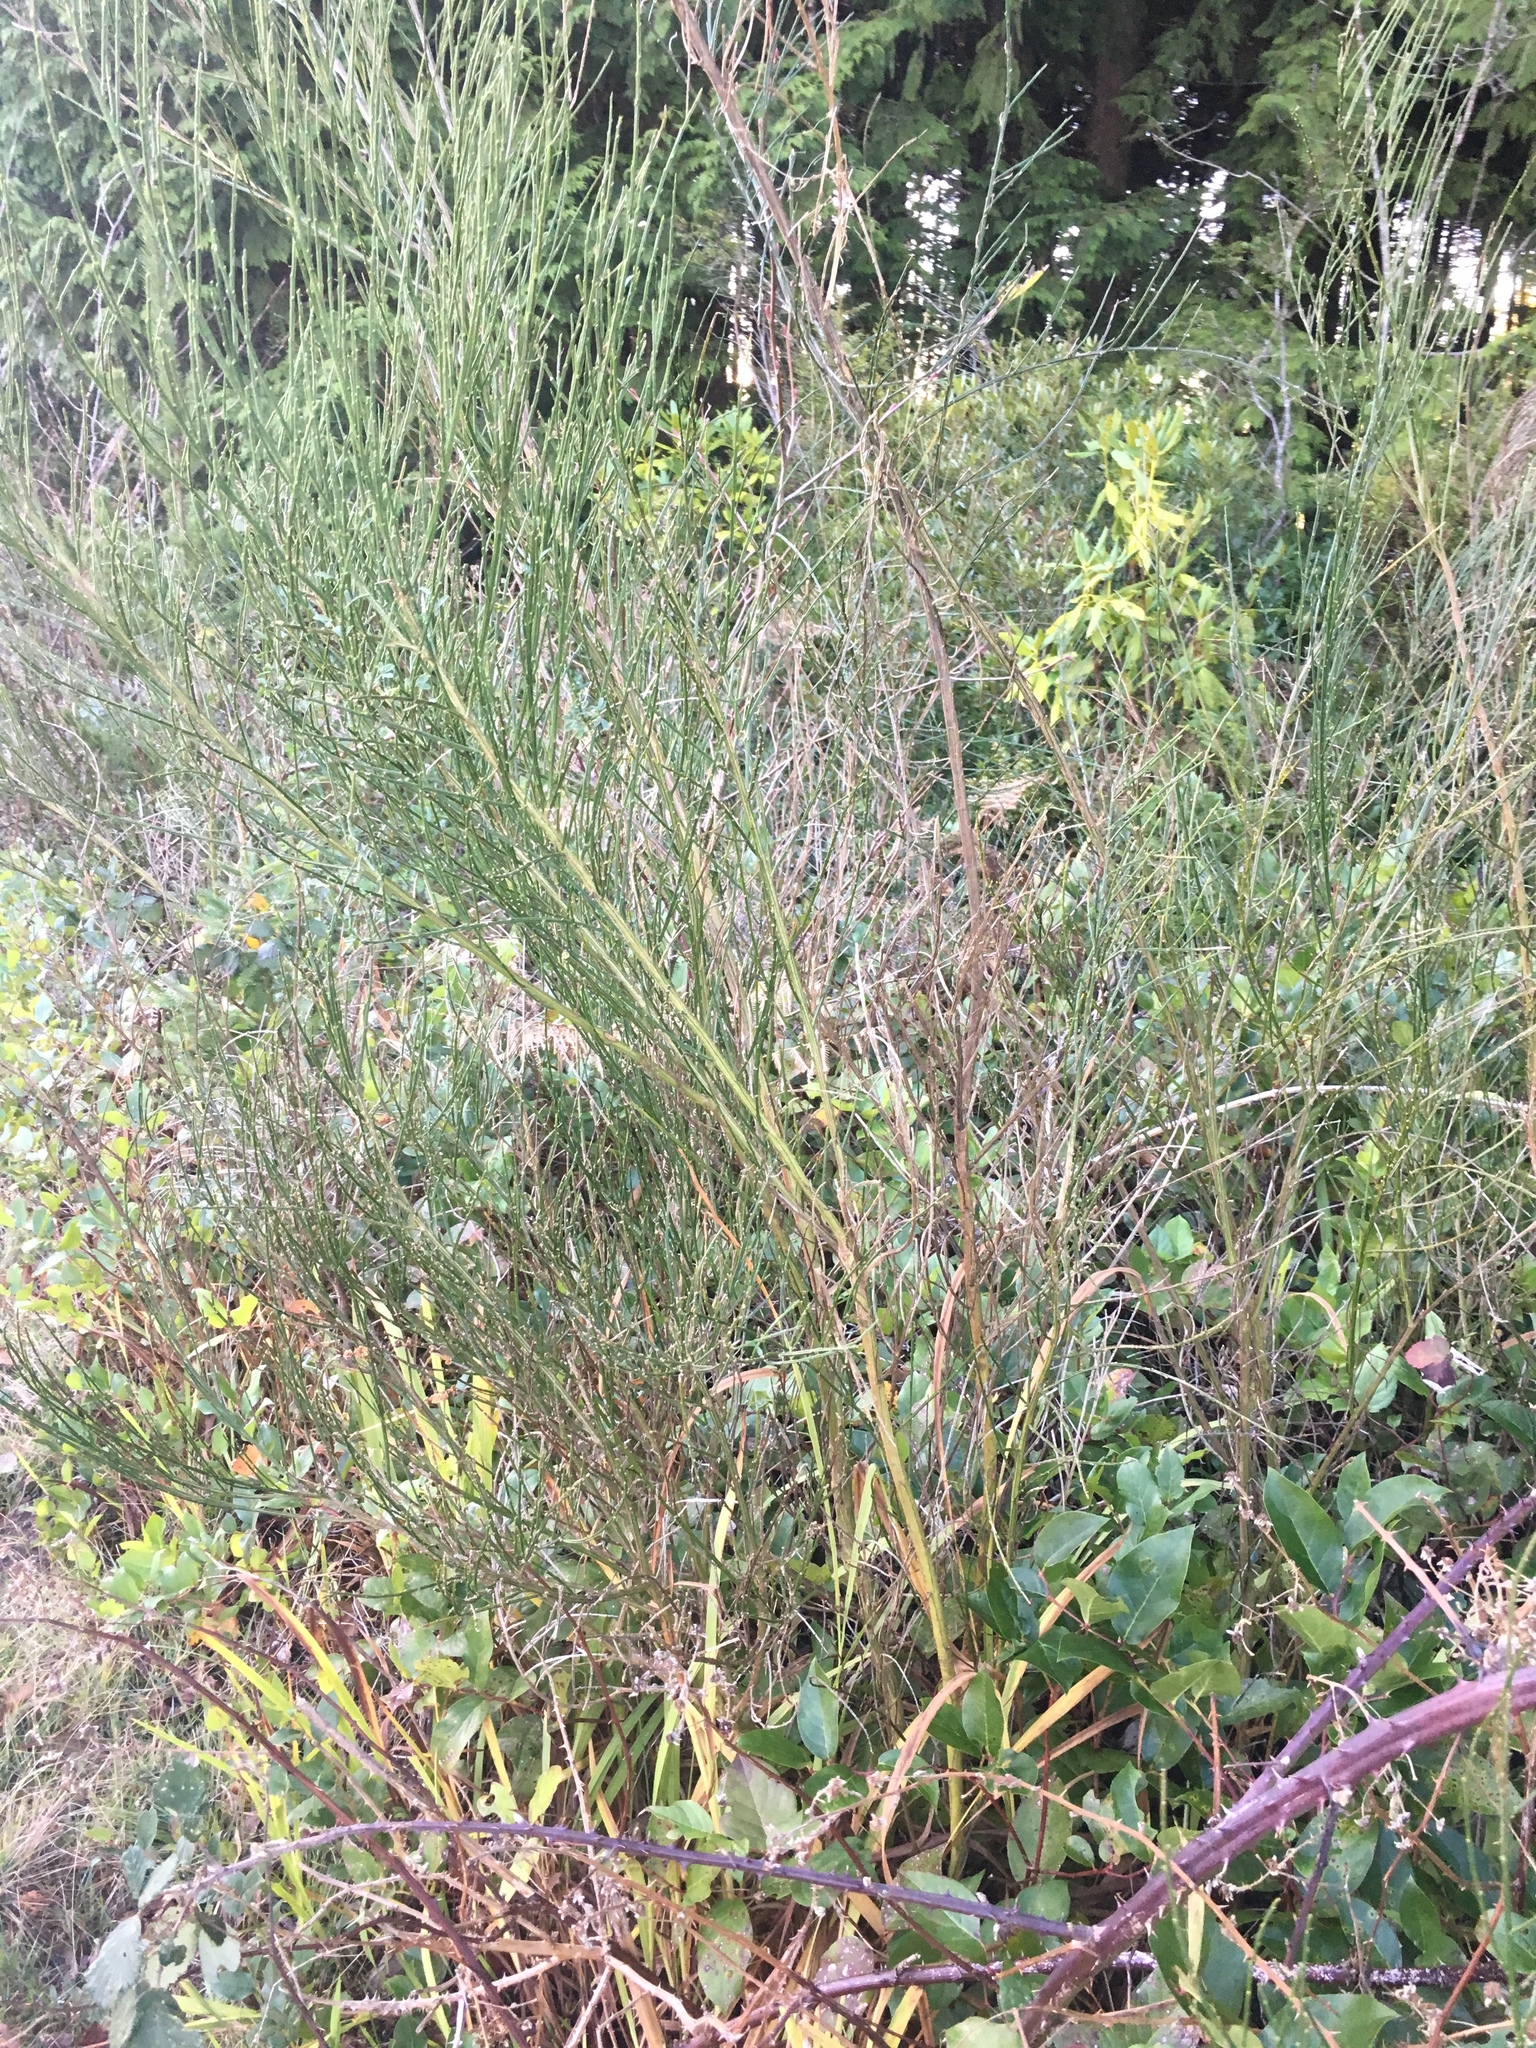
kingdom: Plantae
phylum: Tracheophyta
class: Magnoliopsida
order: Fabales
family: Fabaceae
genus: Cytisus
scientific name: Cytisus scoparius
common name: Scotch broom
